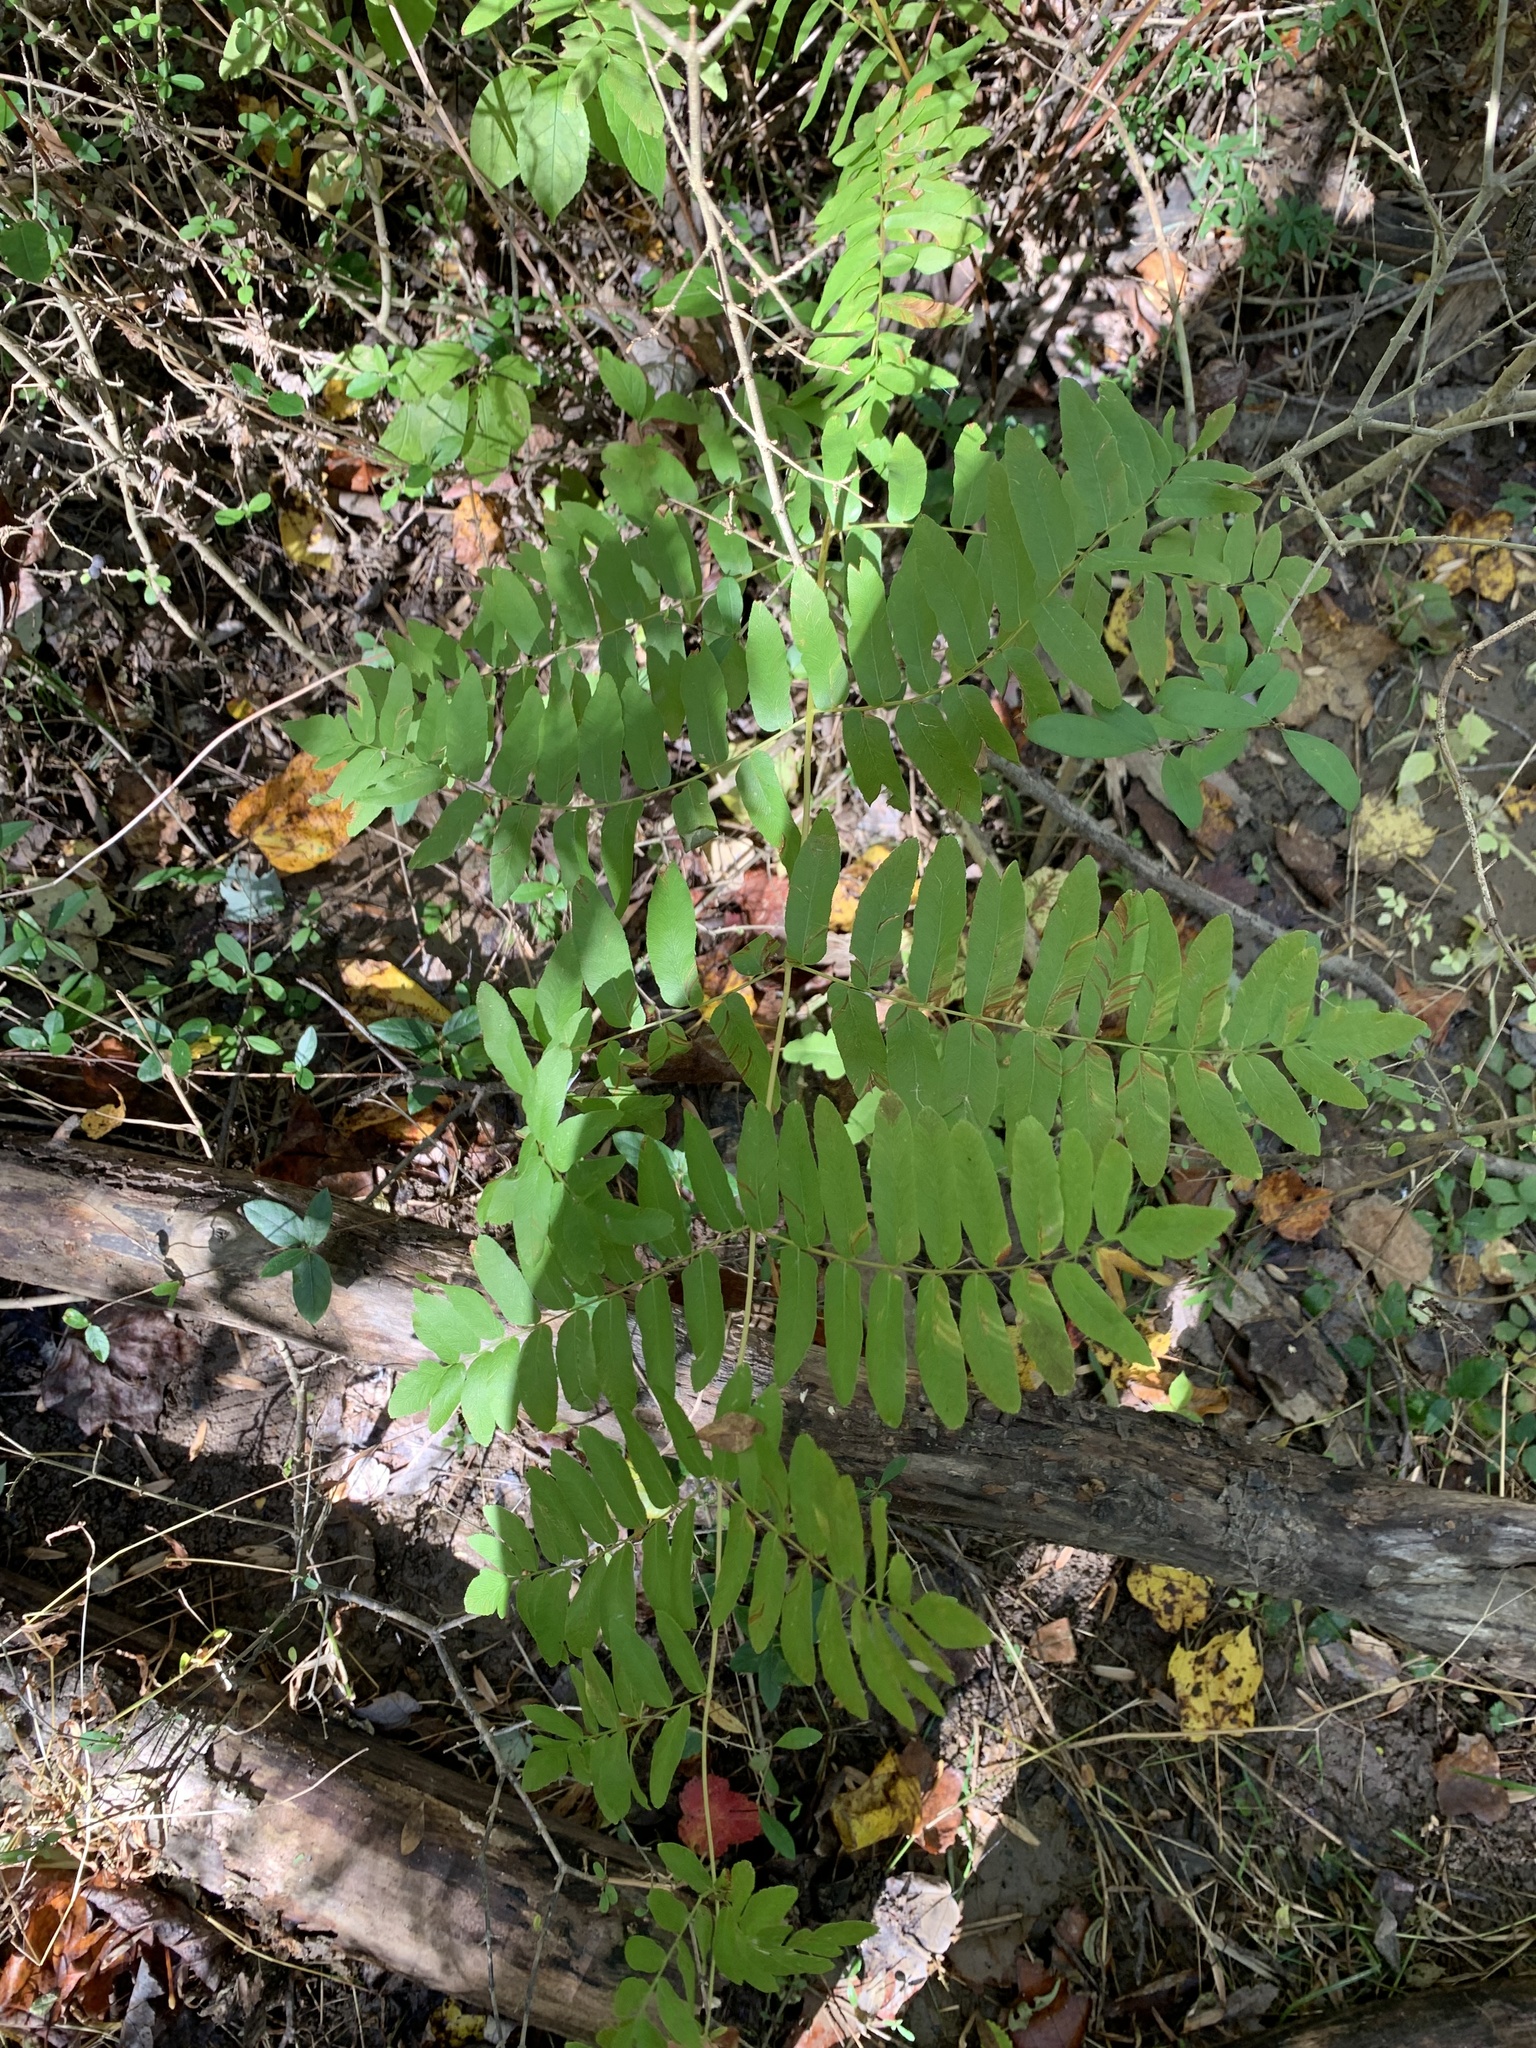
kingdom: Plantae
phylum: Tracheophyta
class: Polypodiopsida
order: Osmundales
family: Osmundaceae
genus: Osmunda
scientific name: Osmunda spectabilis
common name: American royal fern
